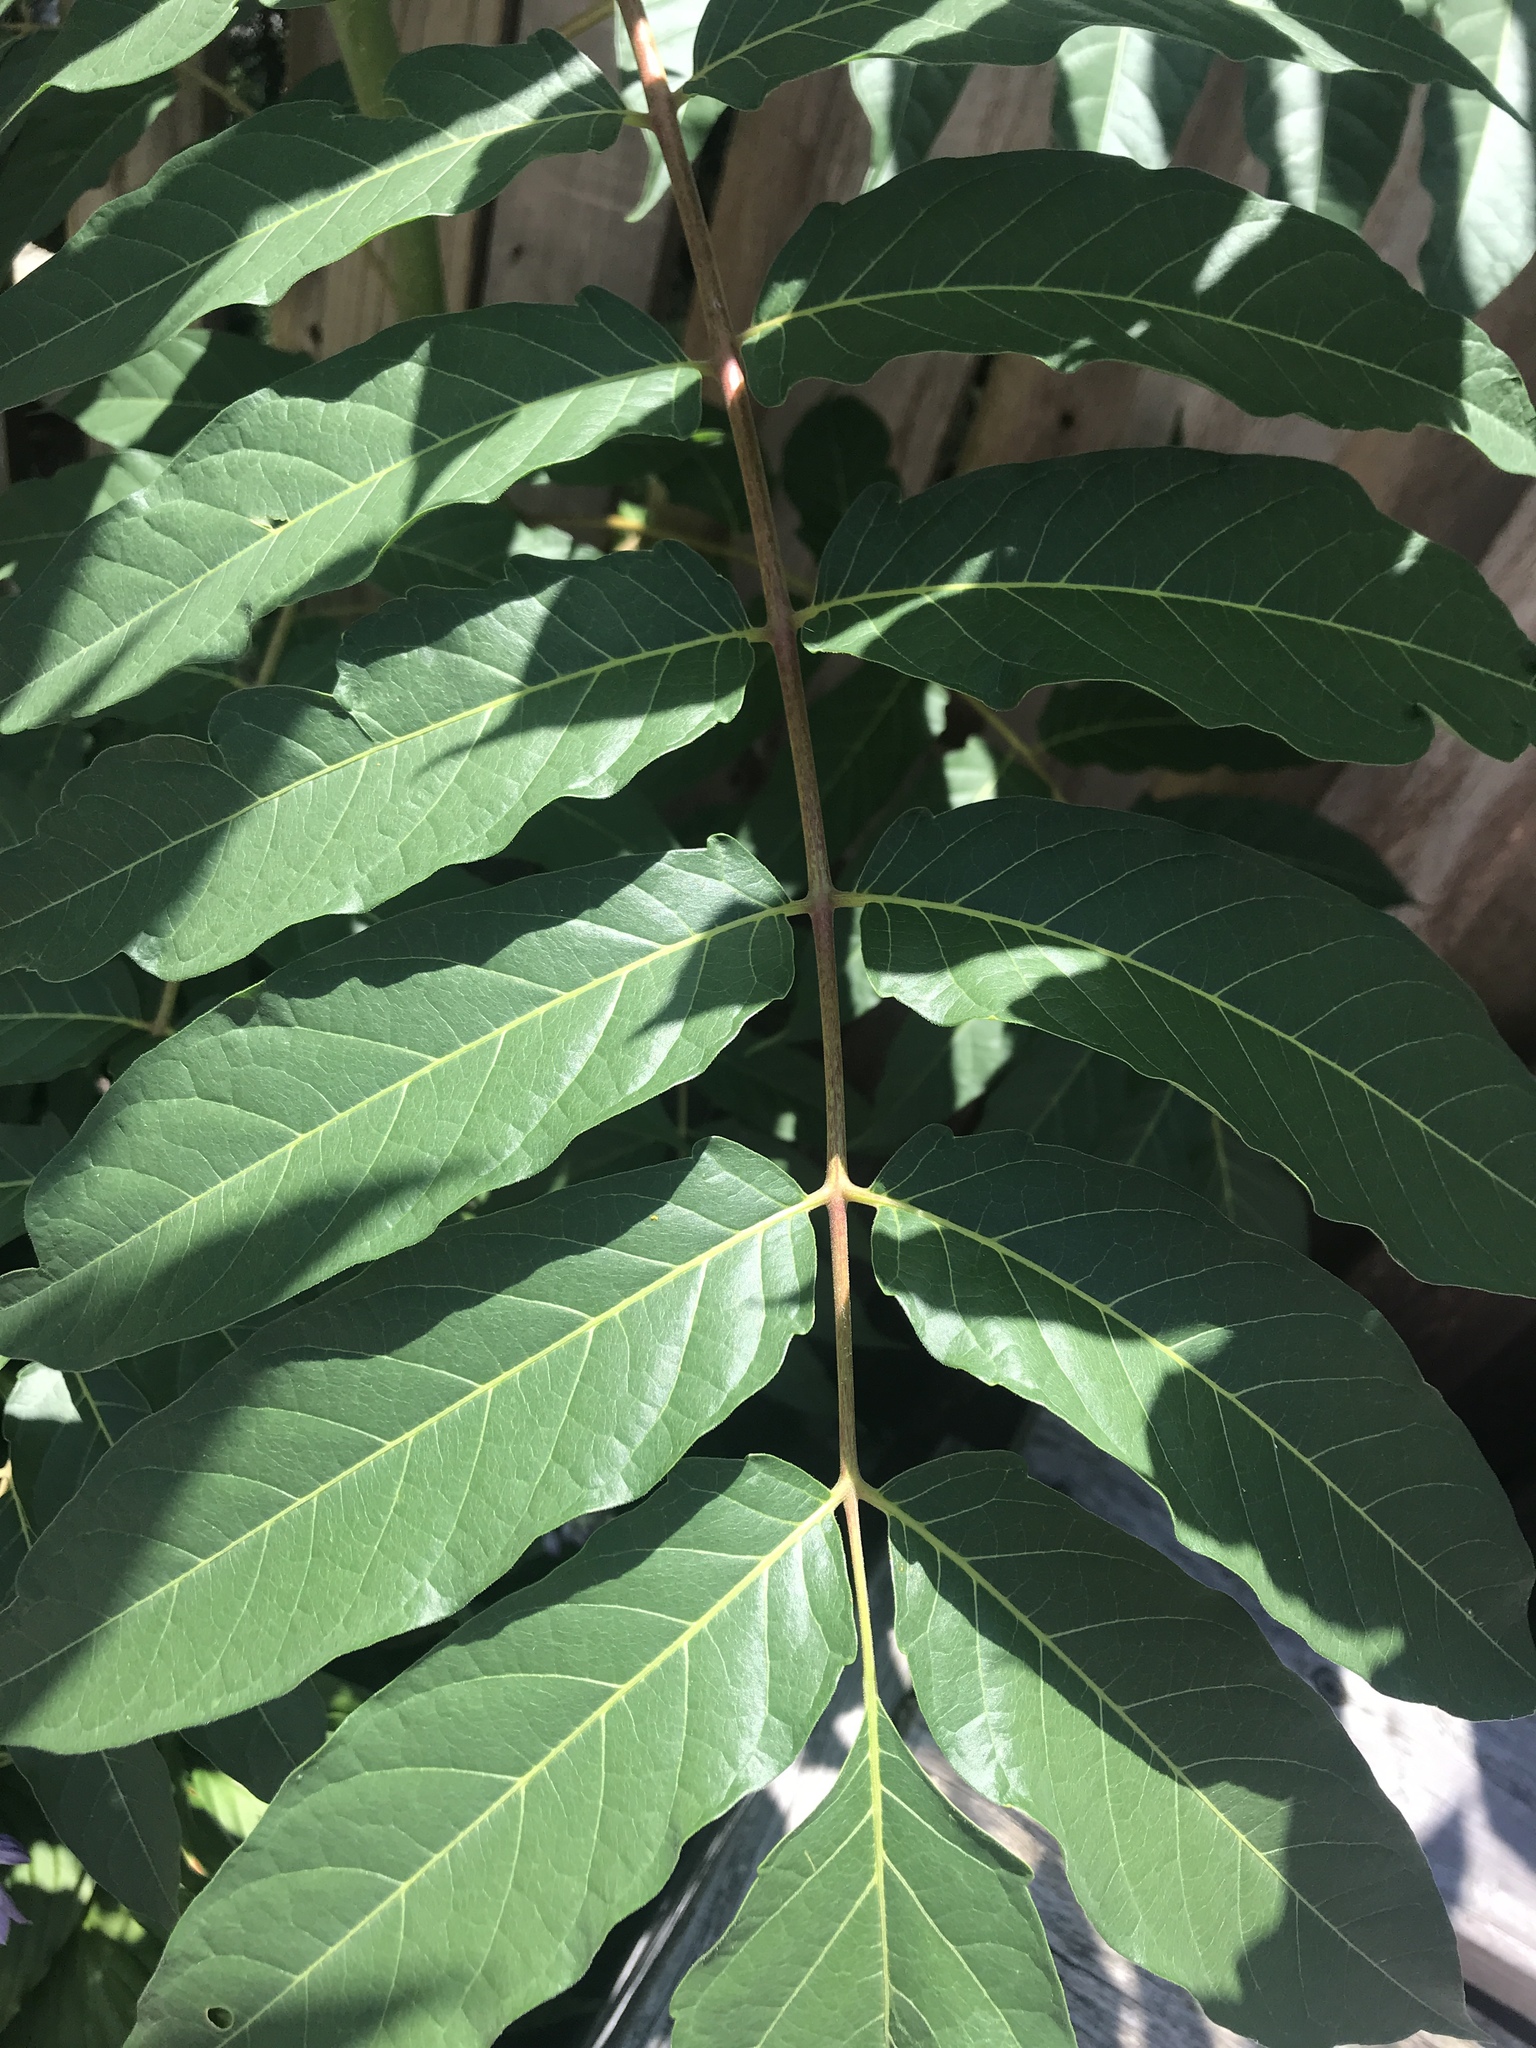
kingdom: Plantae
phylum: Tracheophyta
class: Magnoliopsida
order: Sapindales
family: Simaroubaceae
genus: Ailanthus
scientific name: Ailanthus altissima
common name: Tree-of-heaven
